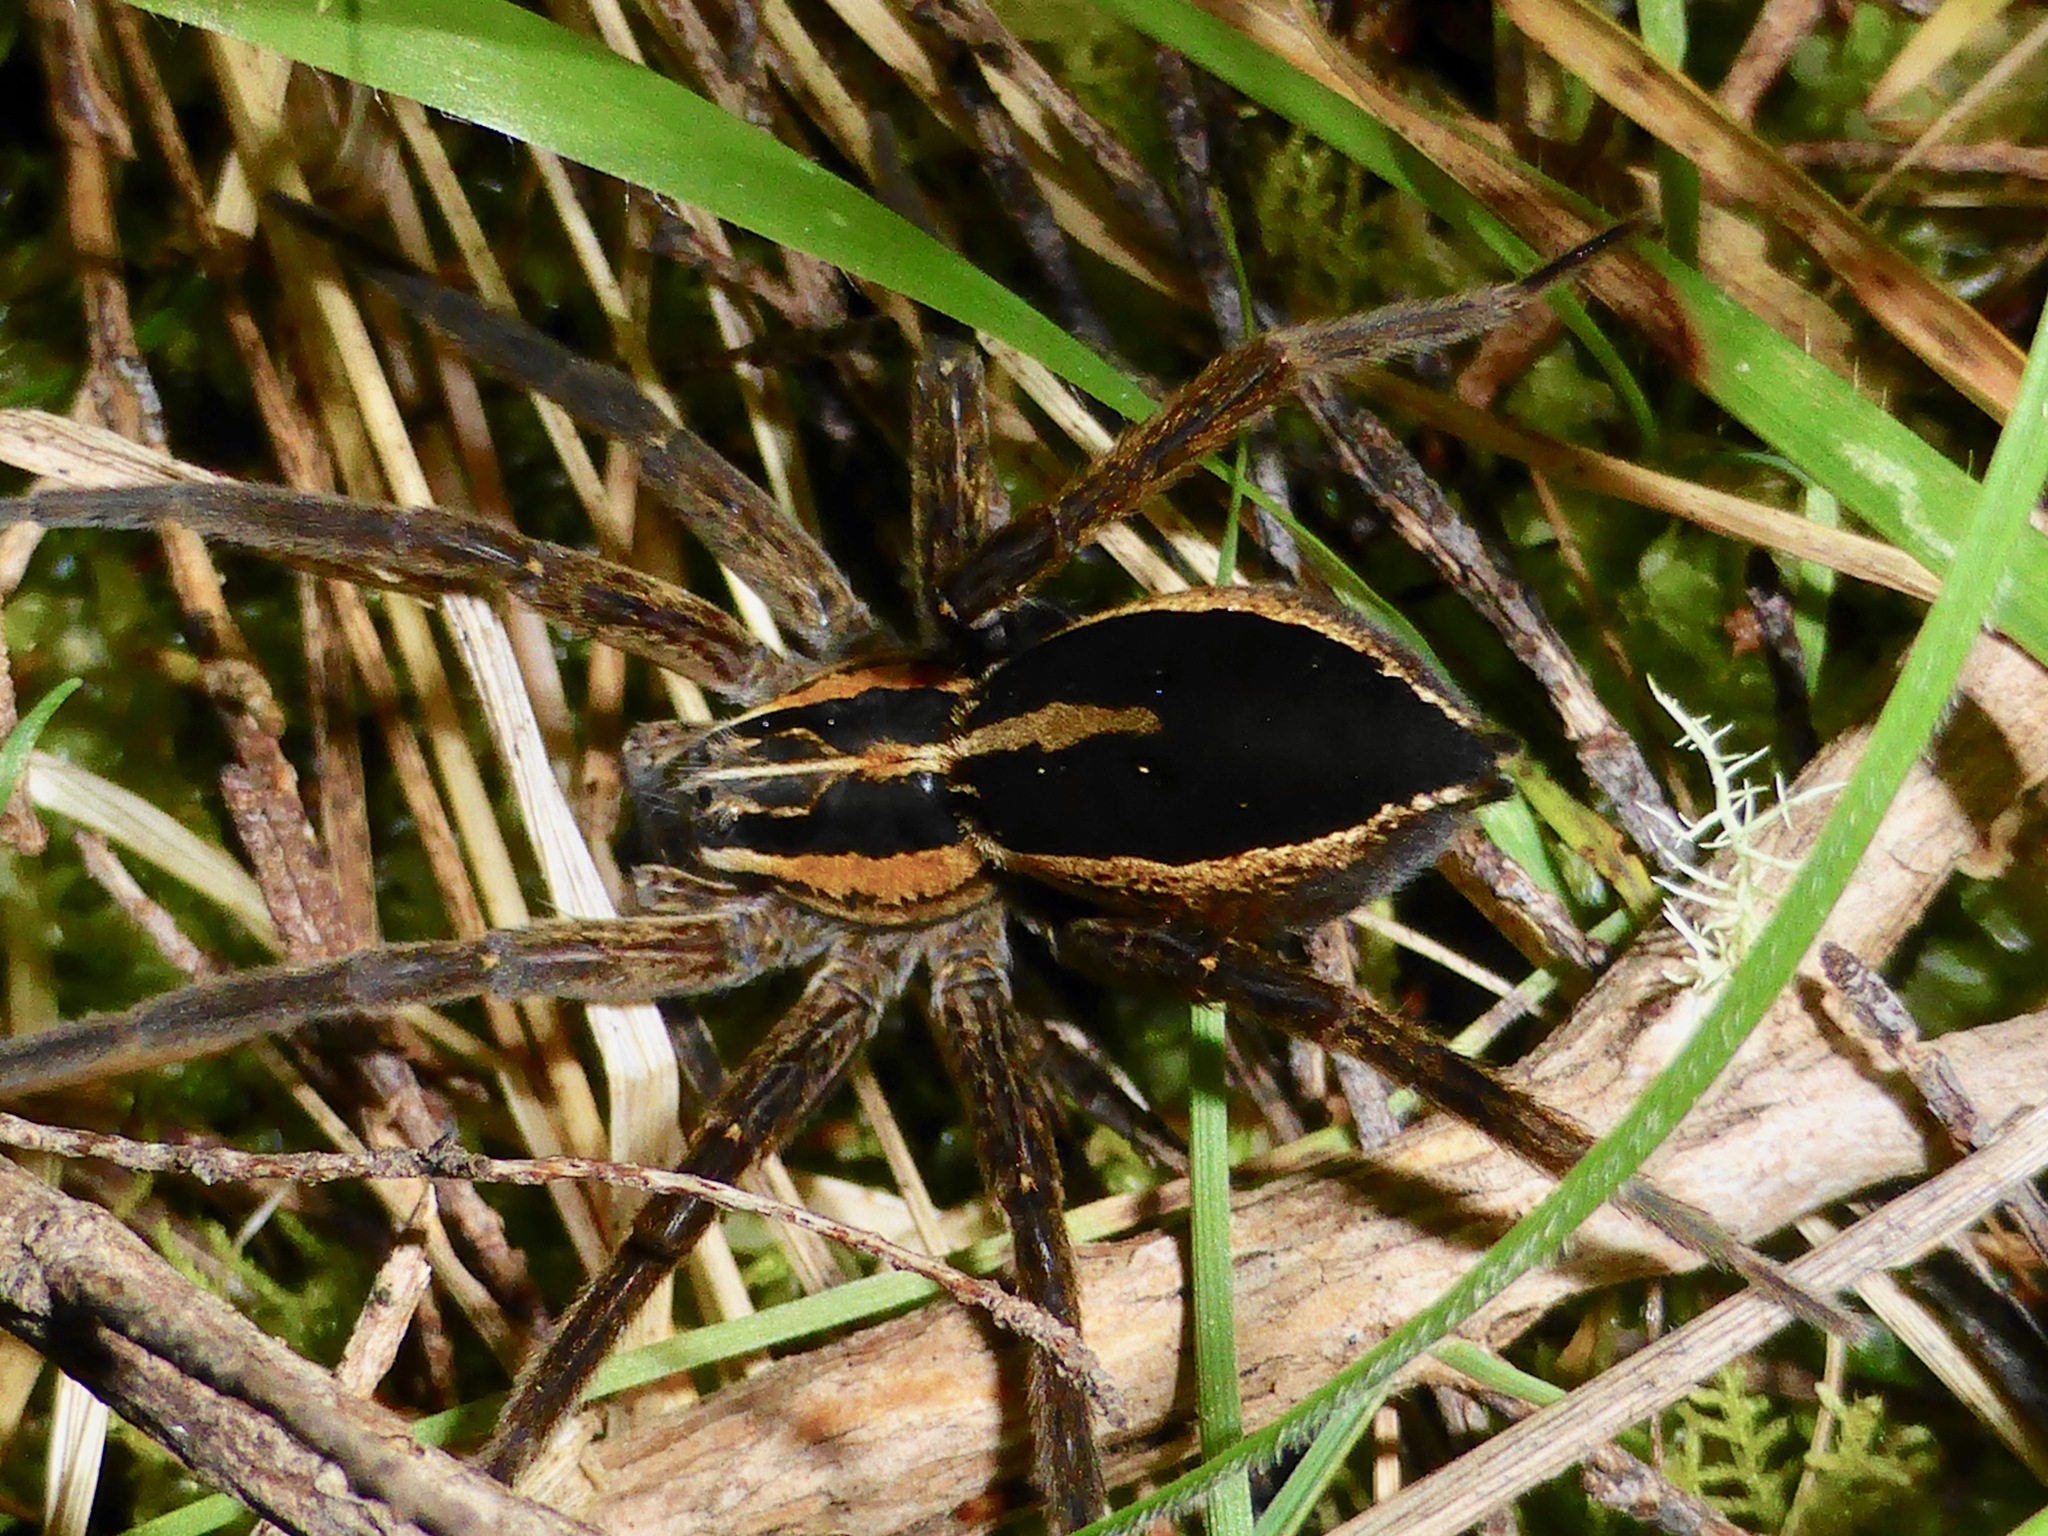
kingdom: Animalia
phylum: Arthropoda
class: Arachnida
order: Araneae
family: Pisauridae
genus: Dolomedes
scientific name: Dolomedes minor
